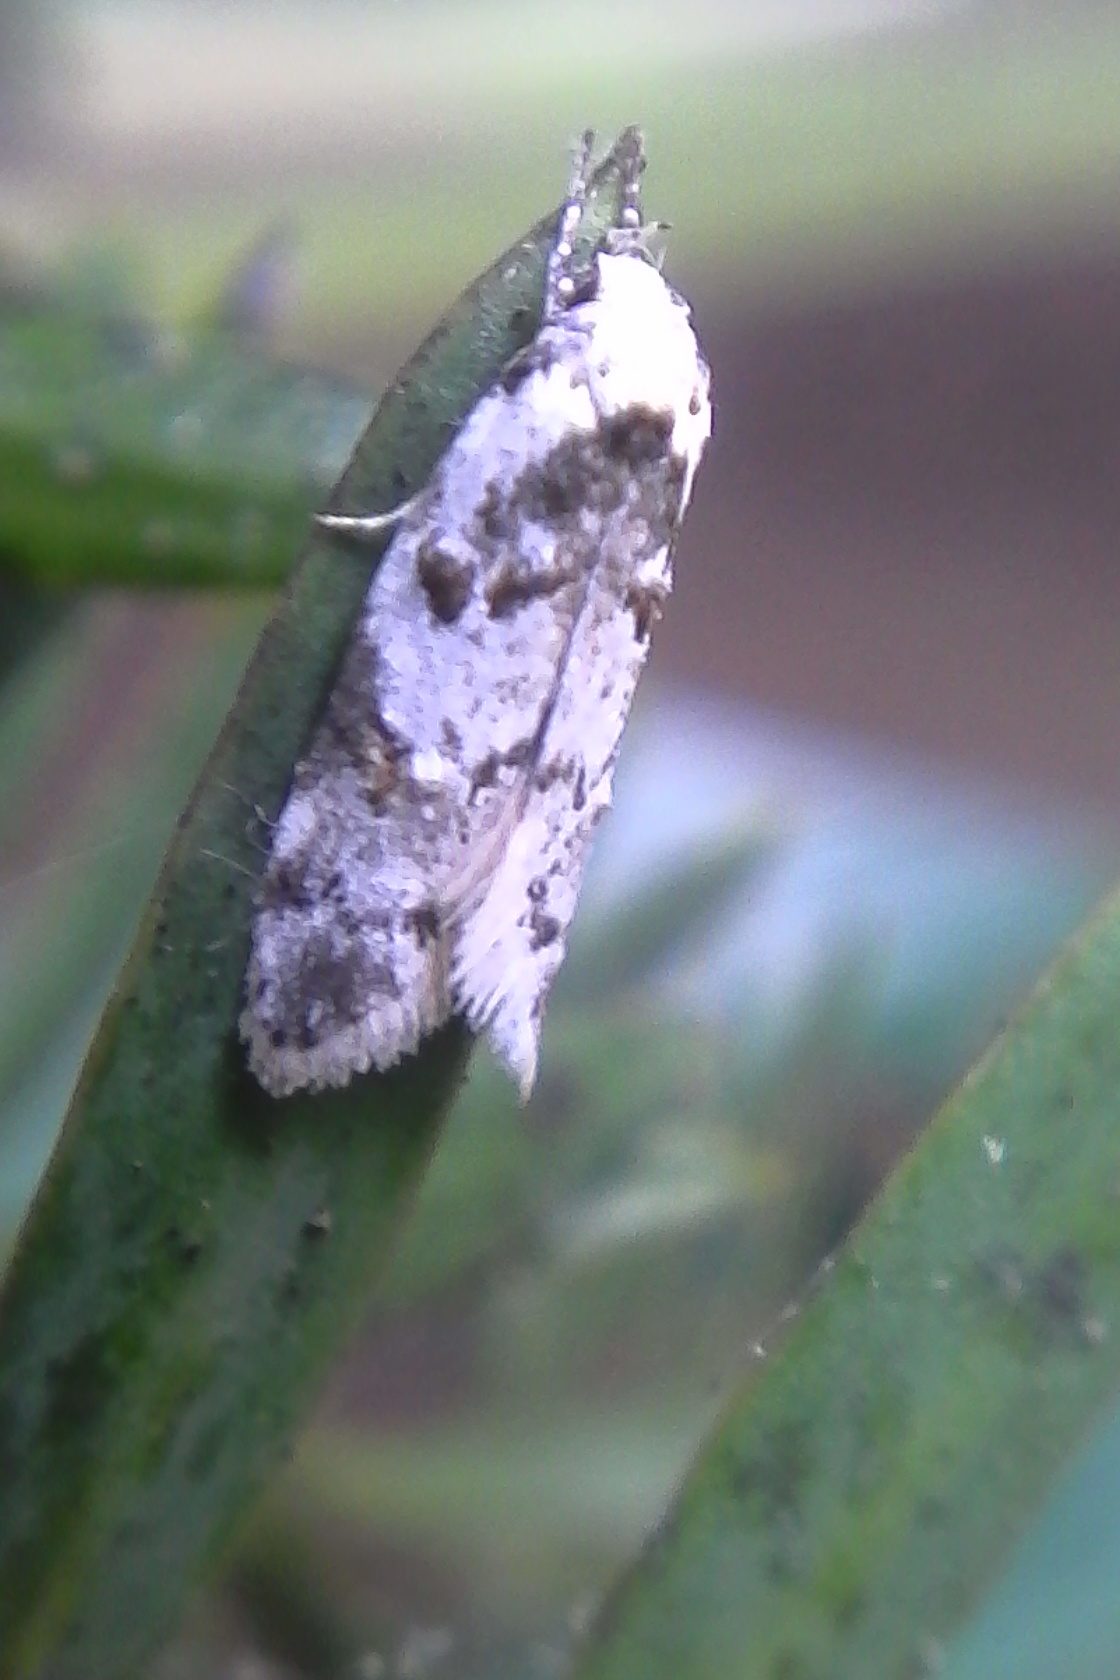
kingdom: Animalia
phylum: Arthropoda
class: Insecta
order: Lepidoptera
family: Oecophoridae
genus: Trachypepla
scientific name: Trachypepla galaxias
